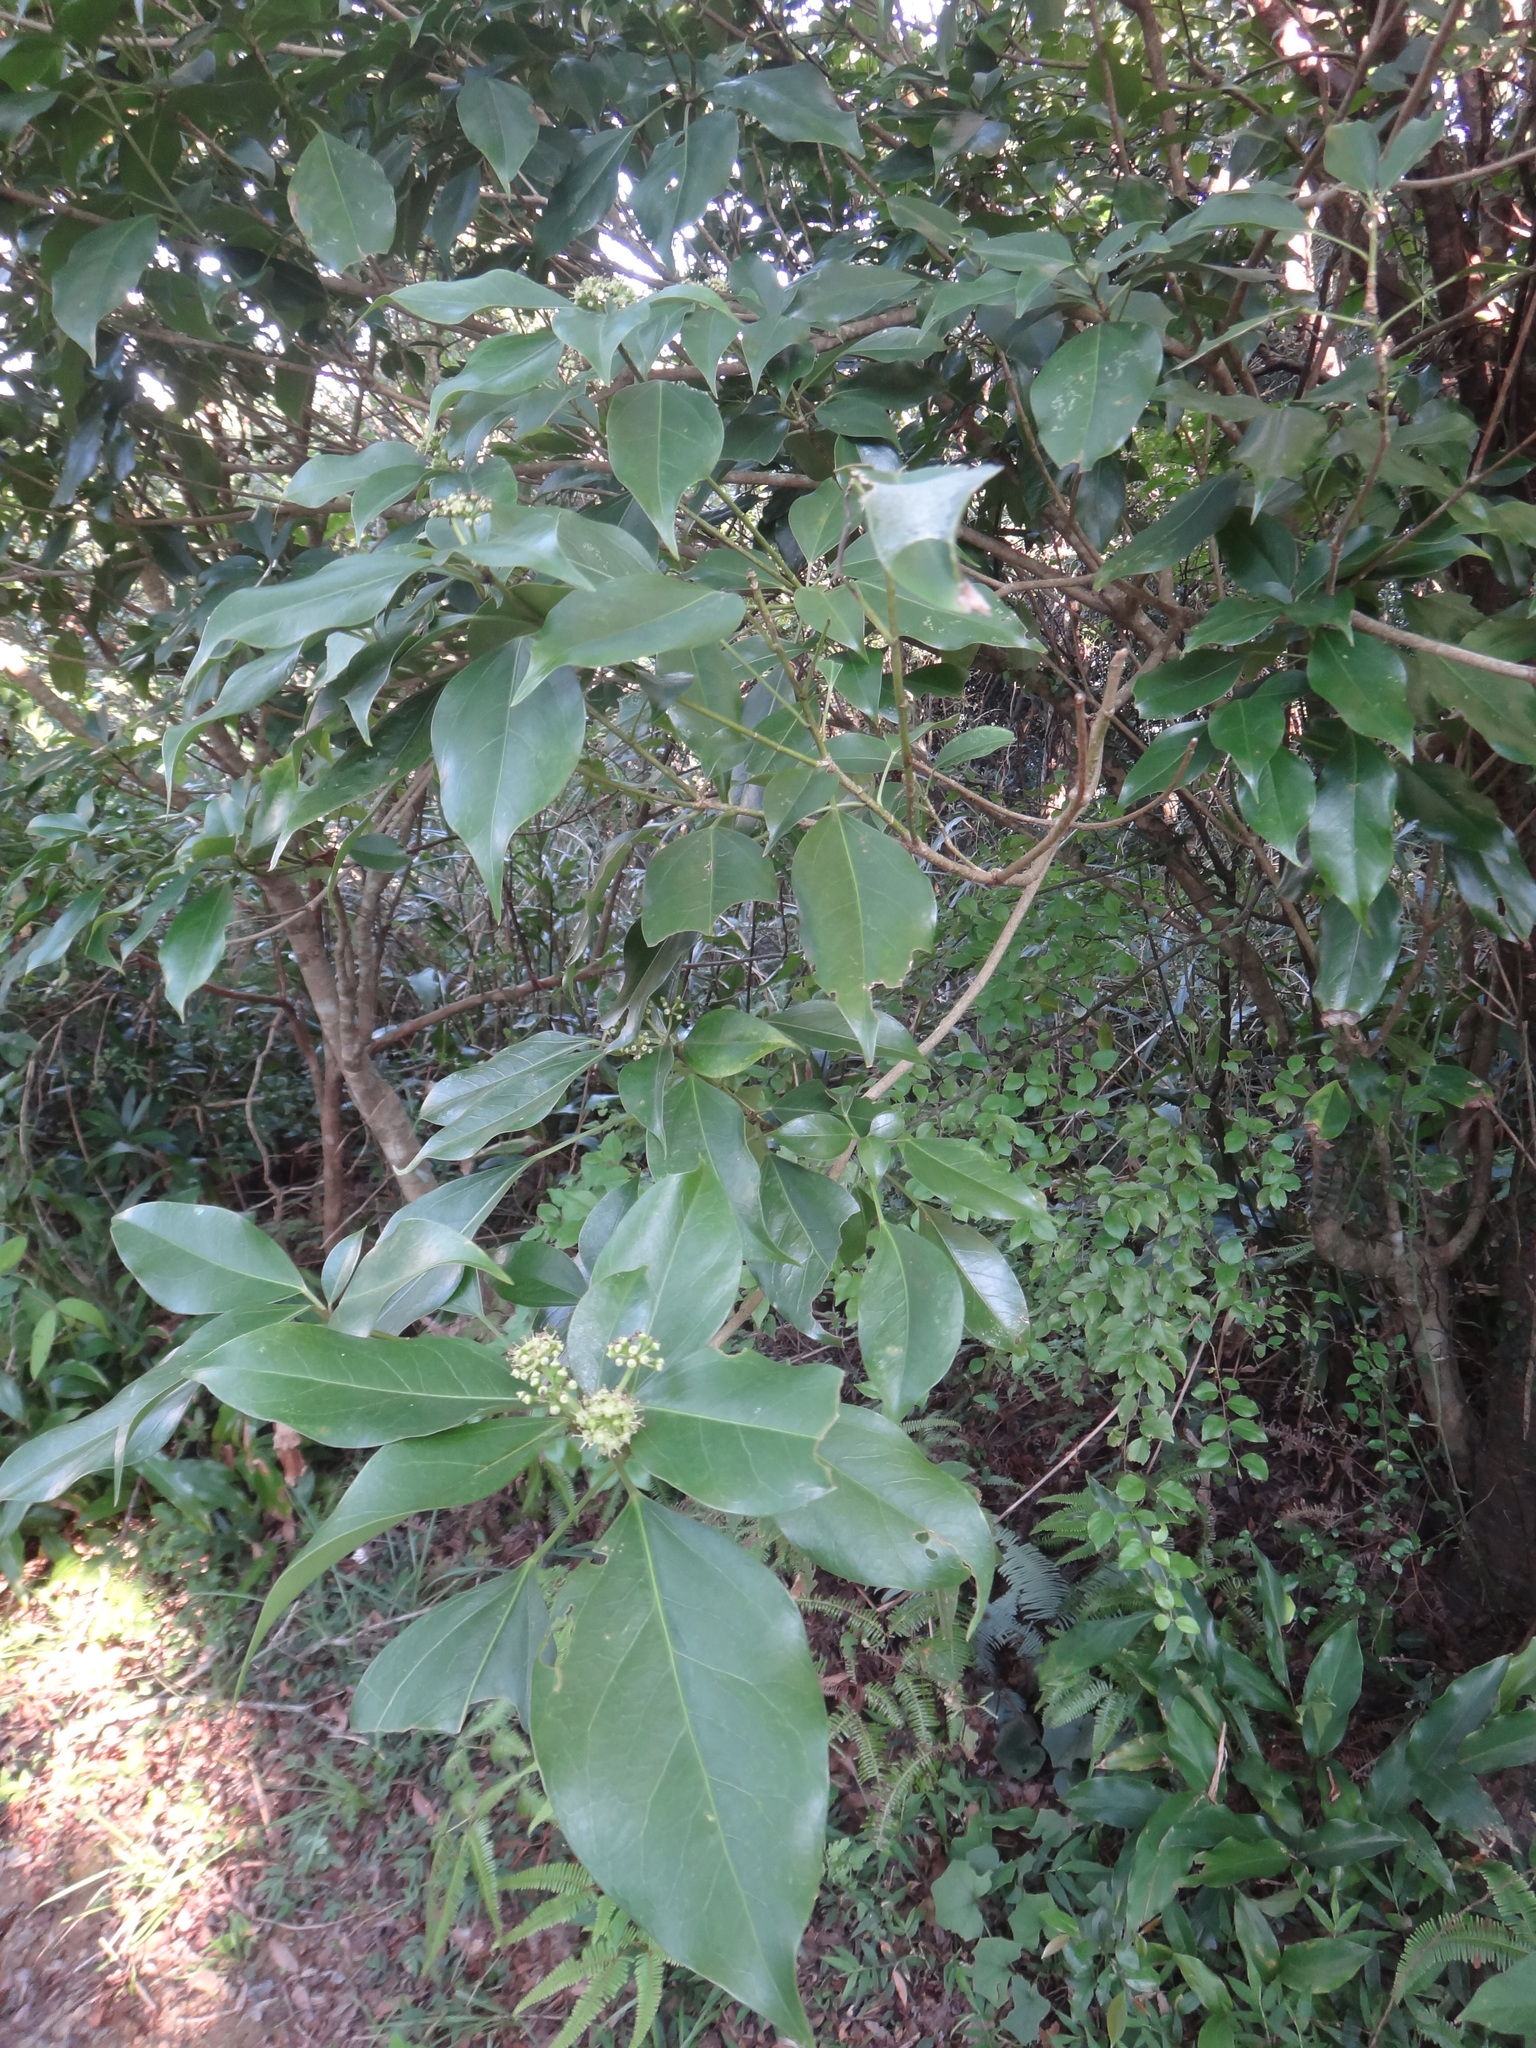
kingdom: Plantae
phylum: Tracheophyta
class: Magnoliopsida
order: Apiales
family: Araliaceae
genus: Dendropanax
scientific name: Dendropanax dentiger
